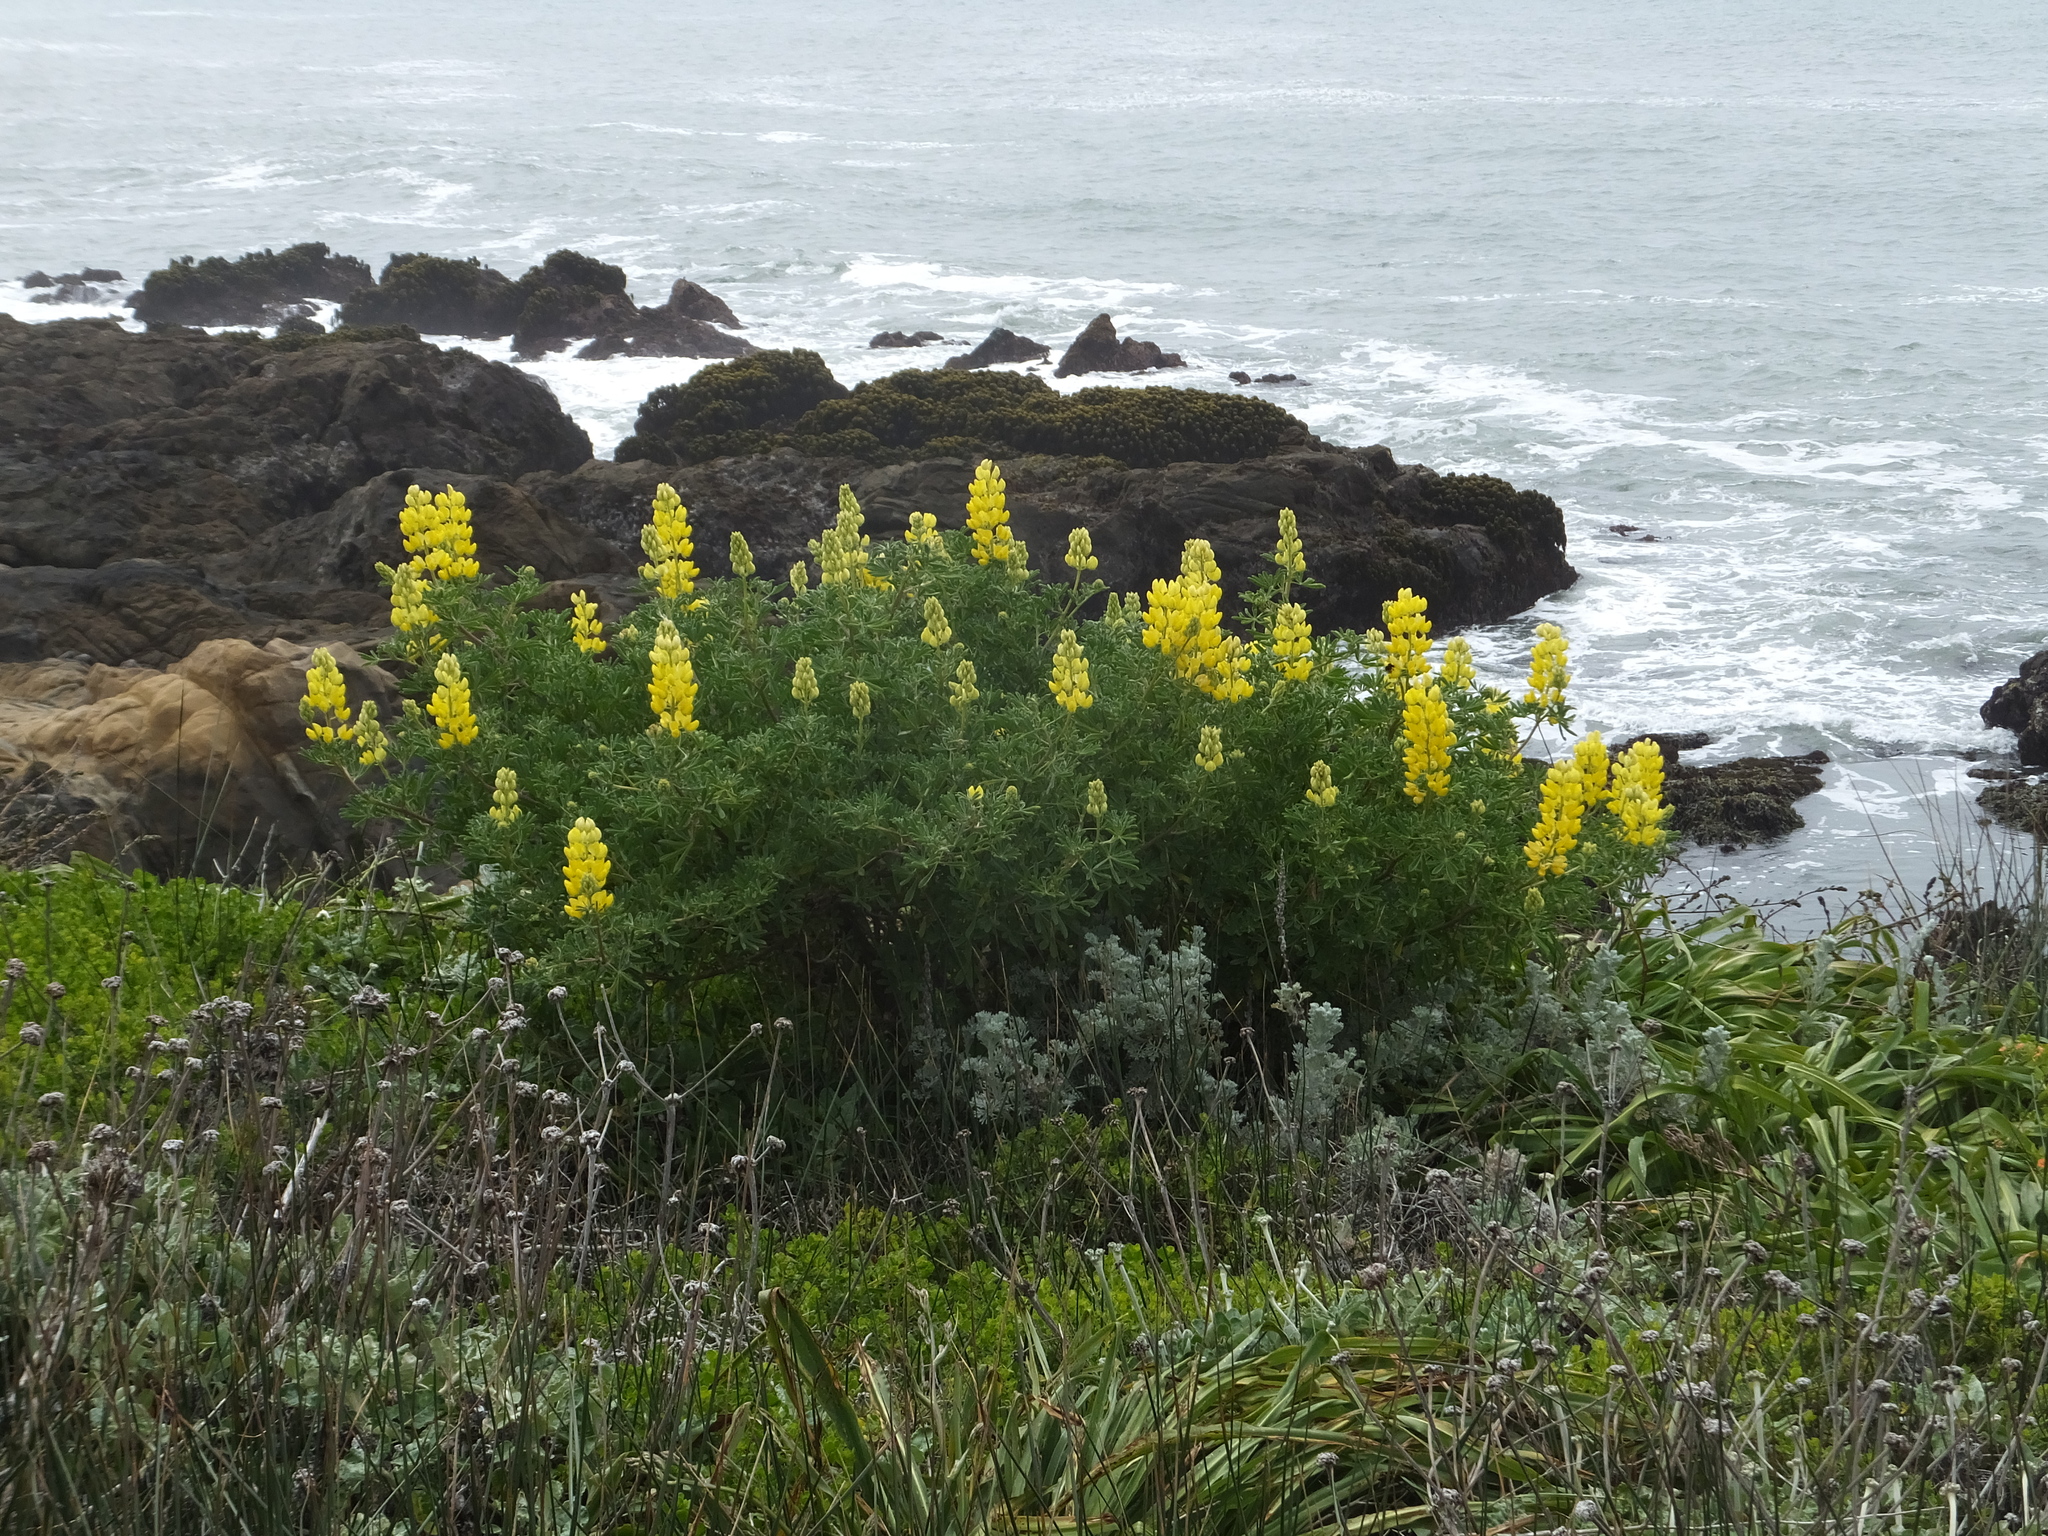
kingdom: Plantae
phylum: Tracheophyta
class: Magnoliopsida
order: Fabales
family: Fabaceae
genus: Lupinus
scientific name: Lupinus arboreus
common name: Yellow bush lupine
